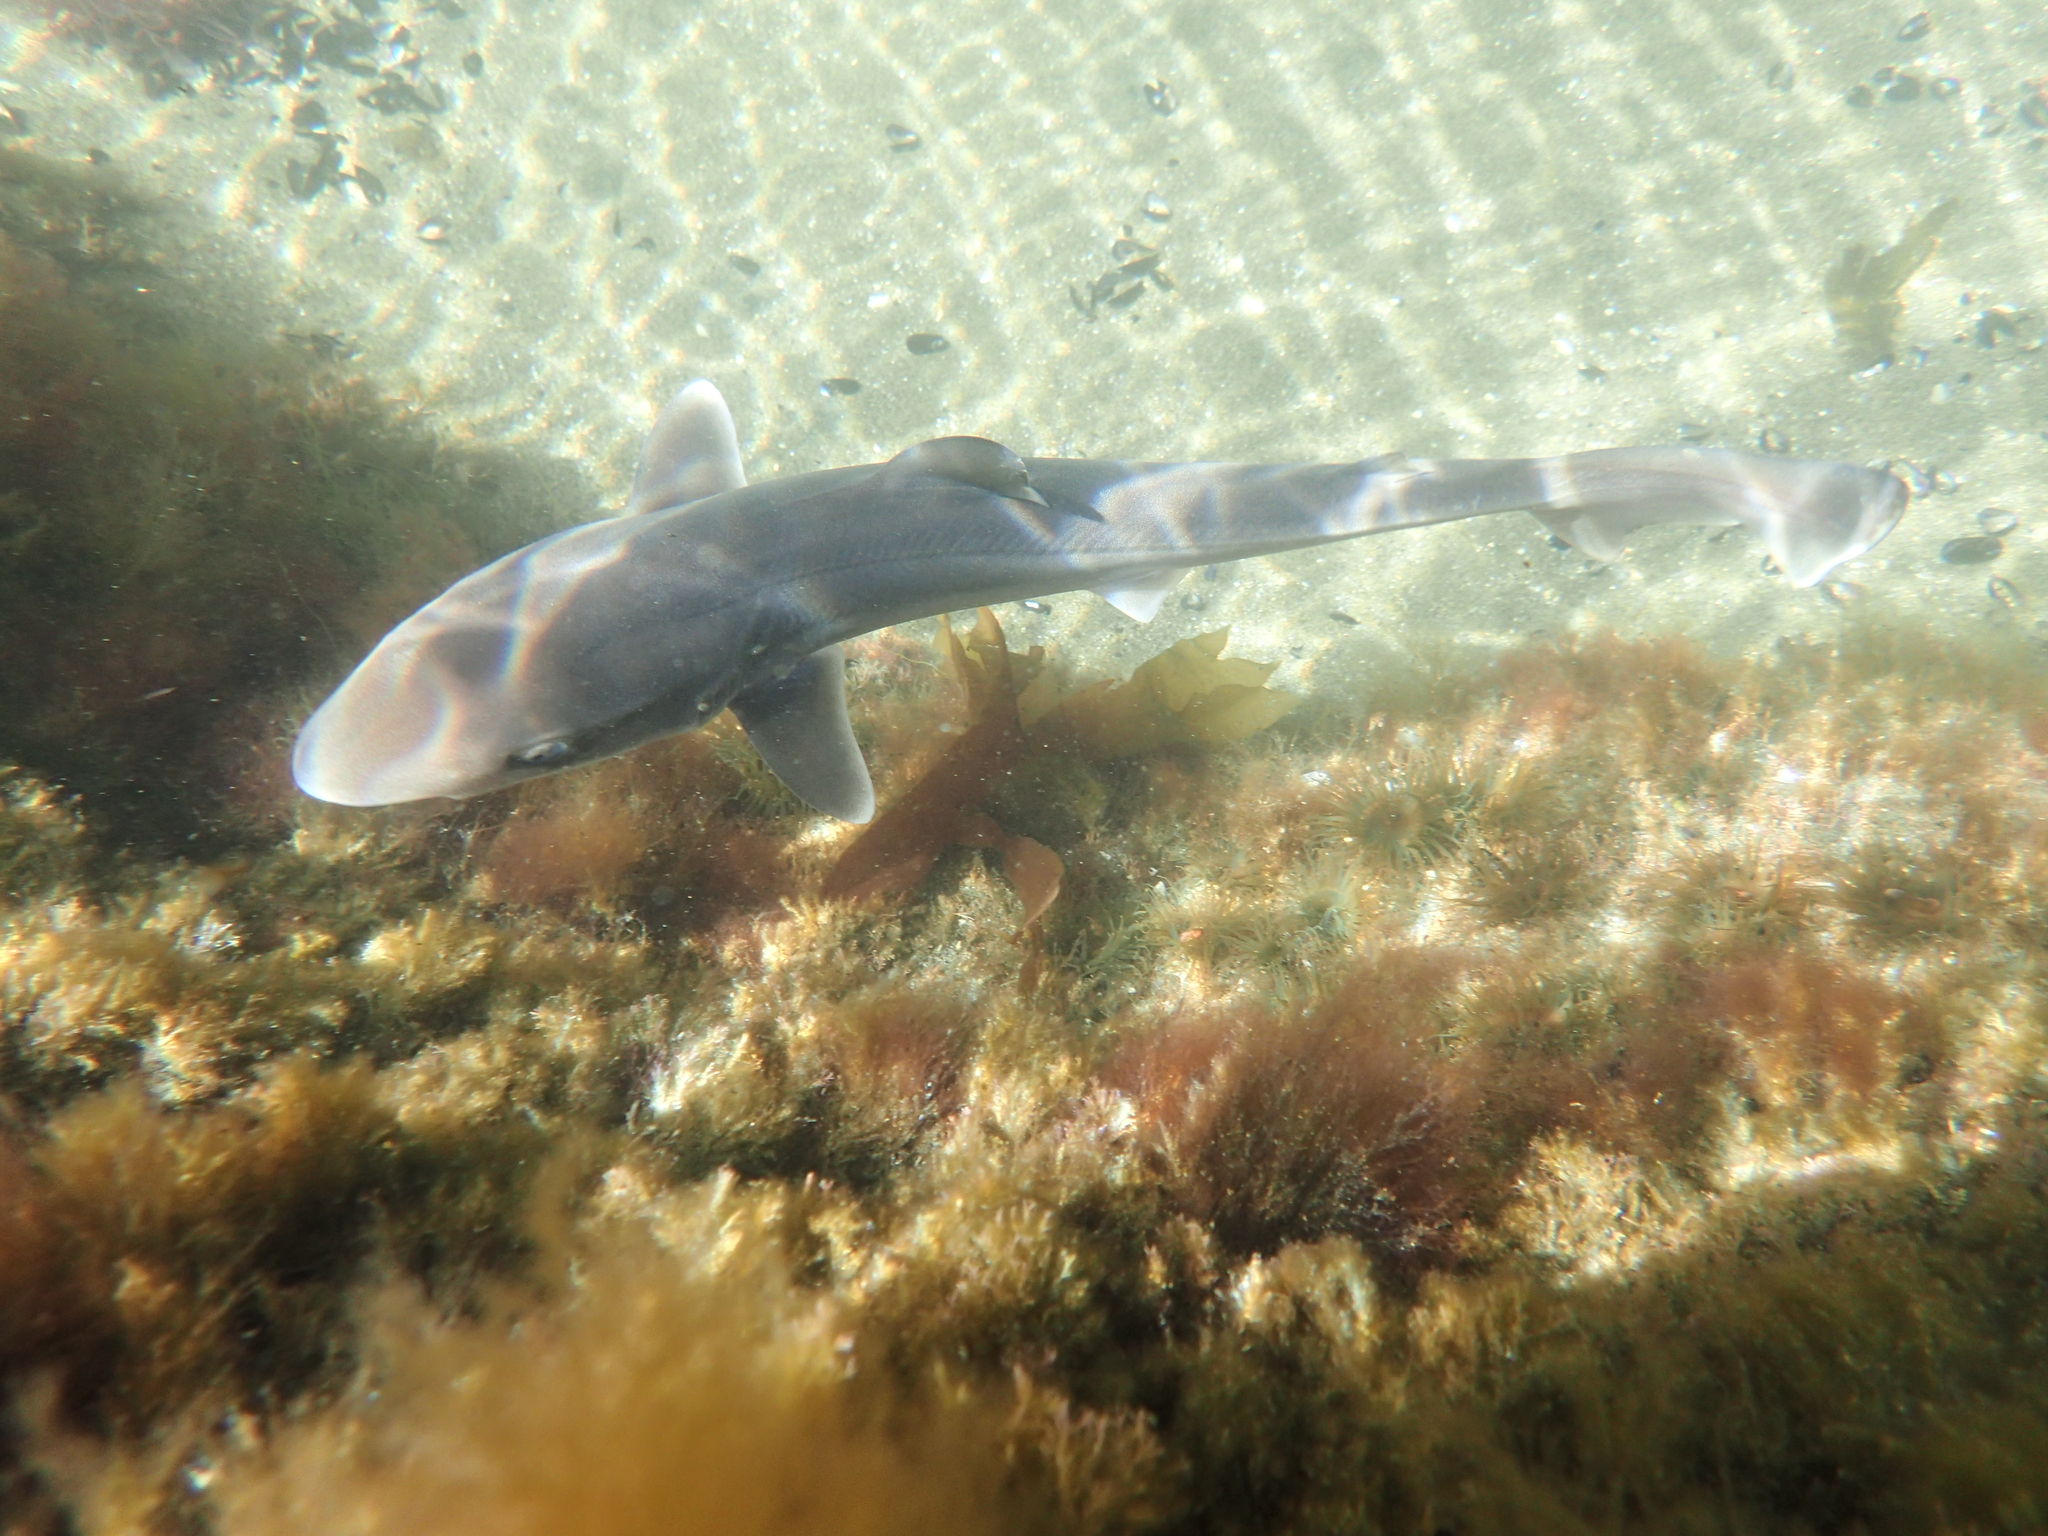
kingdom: Animalia
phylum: Chordata
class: Elasmobranchii
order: Carcharhiniformes
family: Triakidae
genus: Galeorhinus
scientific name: Galeorhinus galeus
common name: Tope
